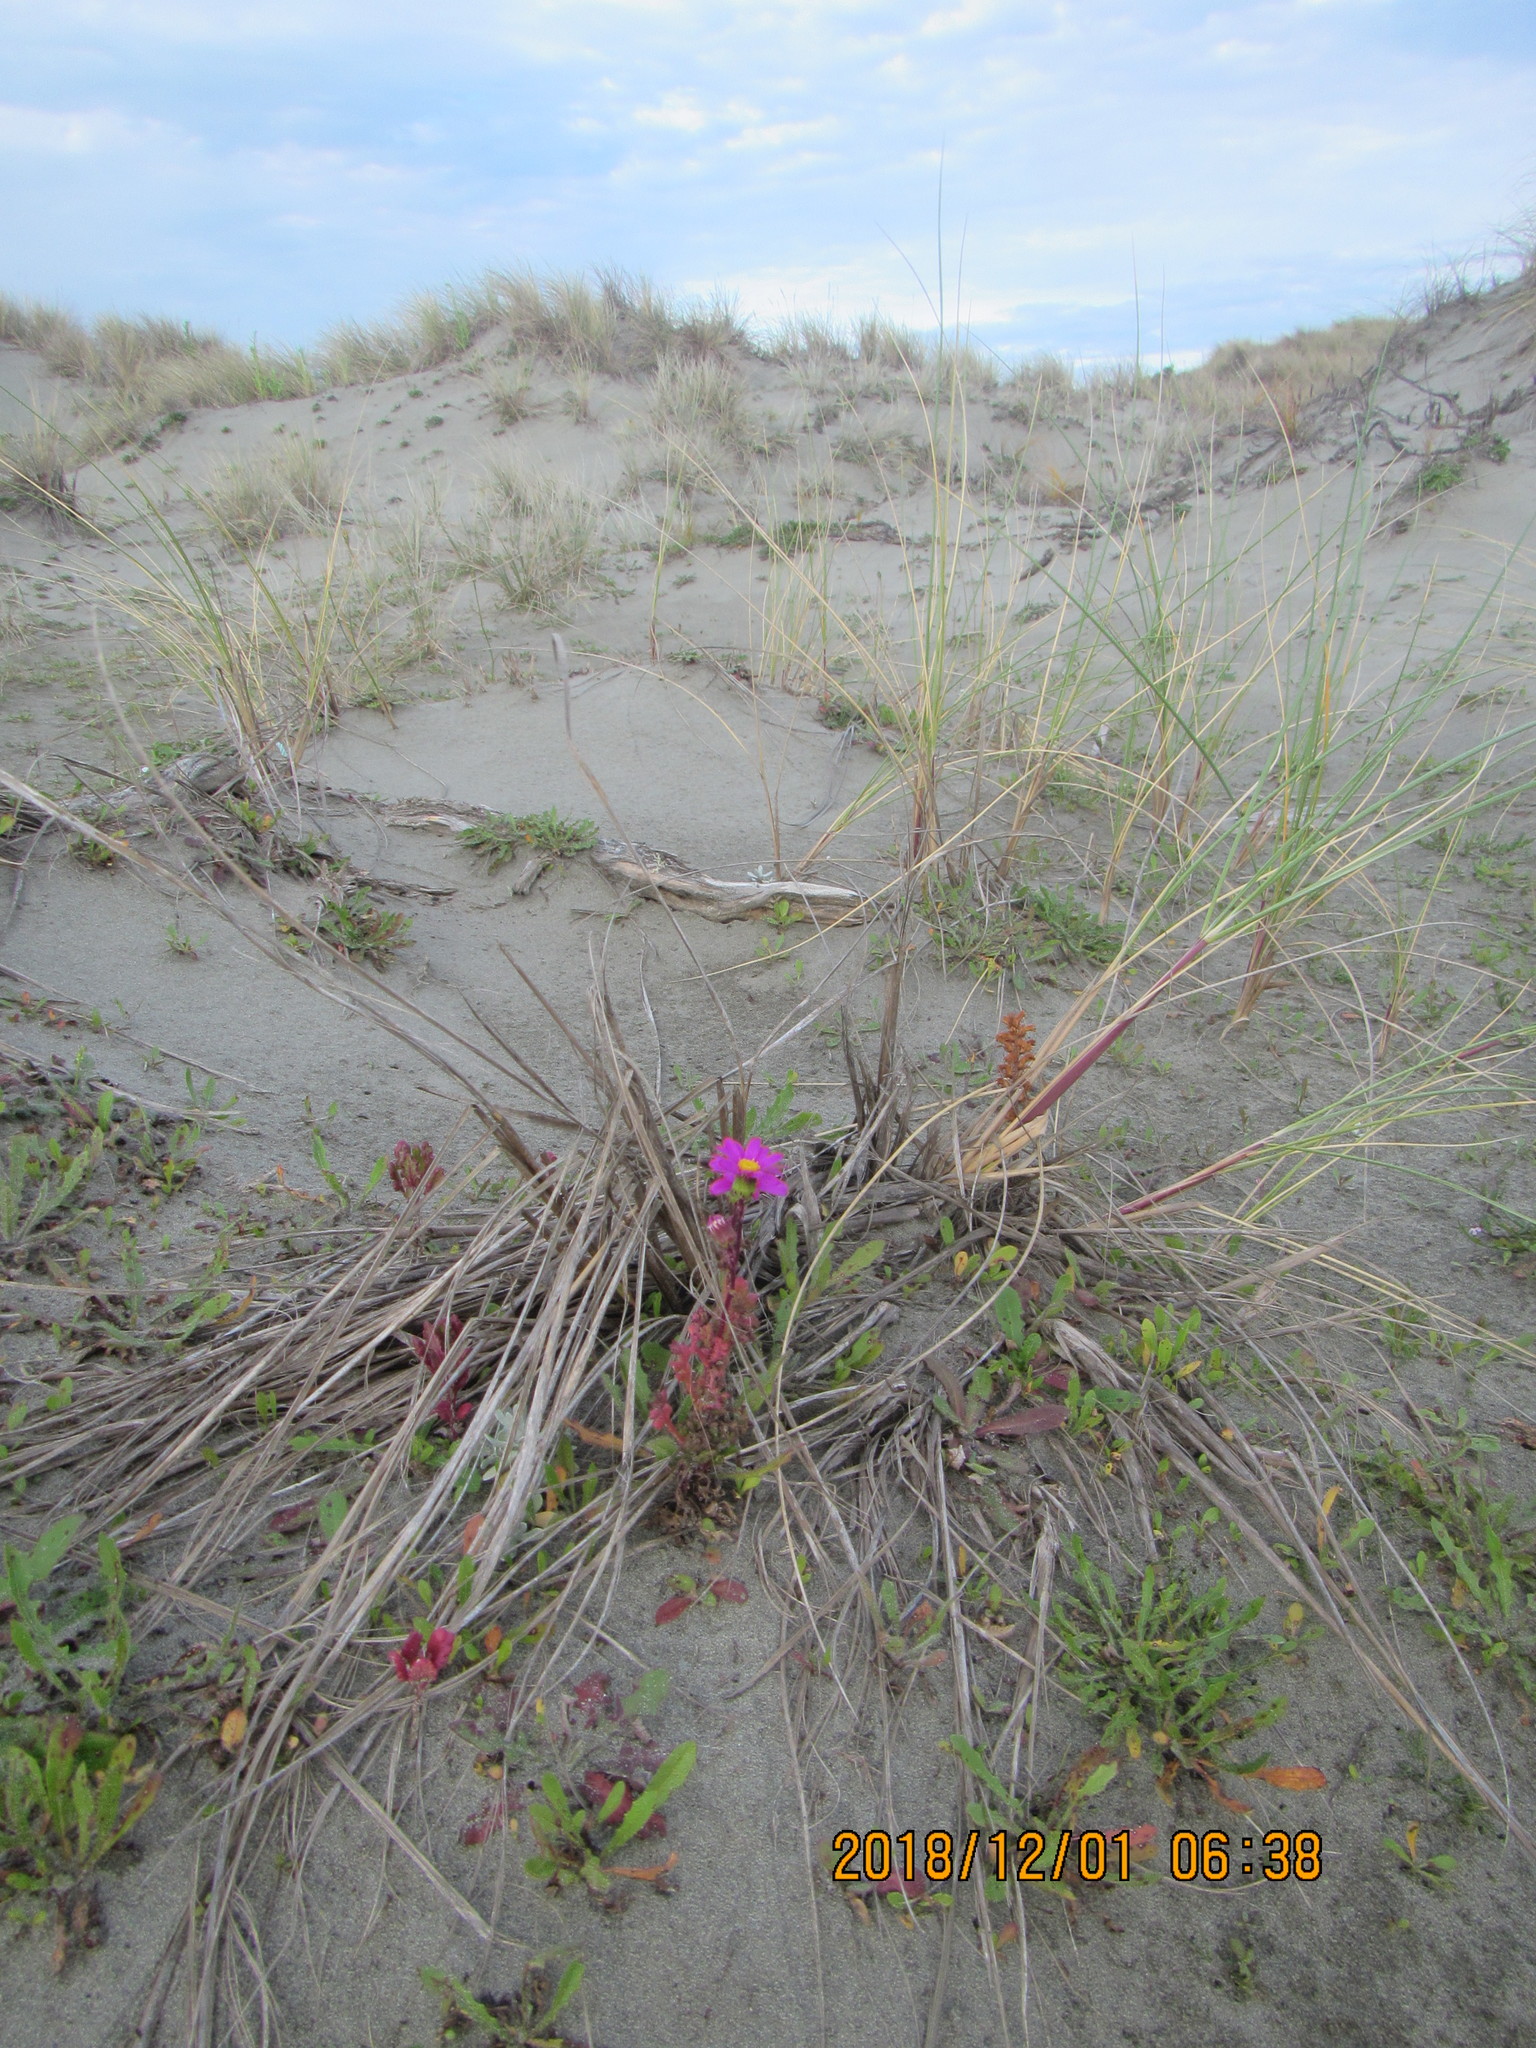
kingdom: Plantae
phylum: Tracheophyta
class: Magnoliopsida
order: Asterales
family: Asteraceae
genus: Senecio
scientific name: Senecio elegans
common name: Purple groundsel
